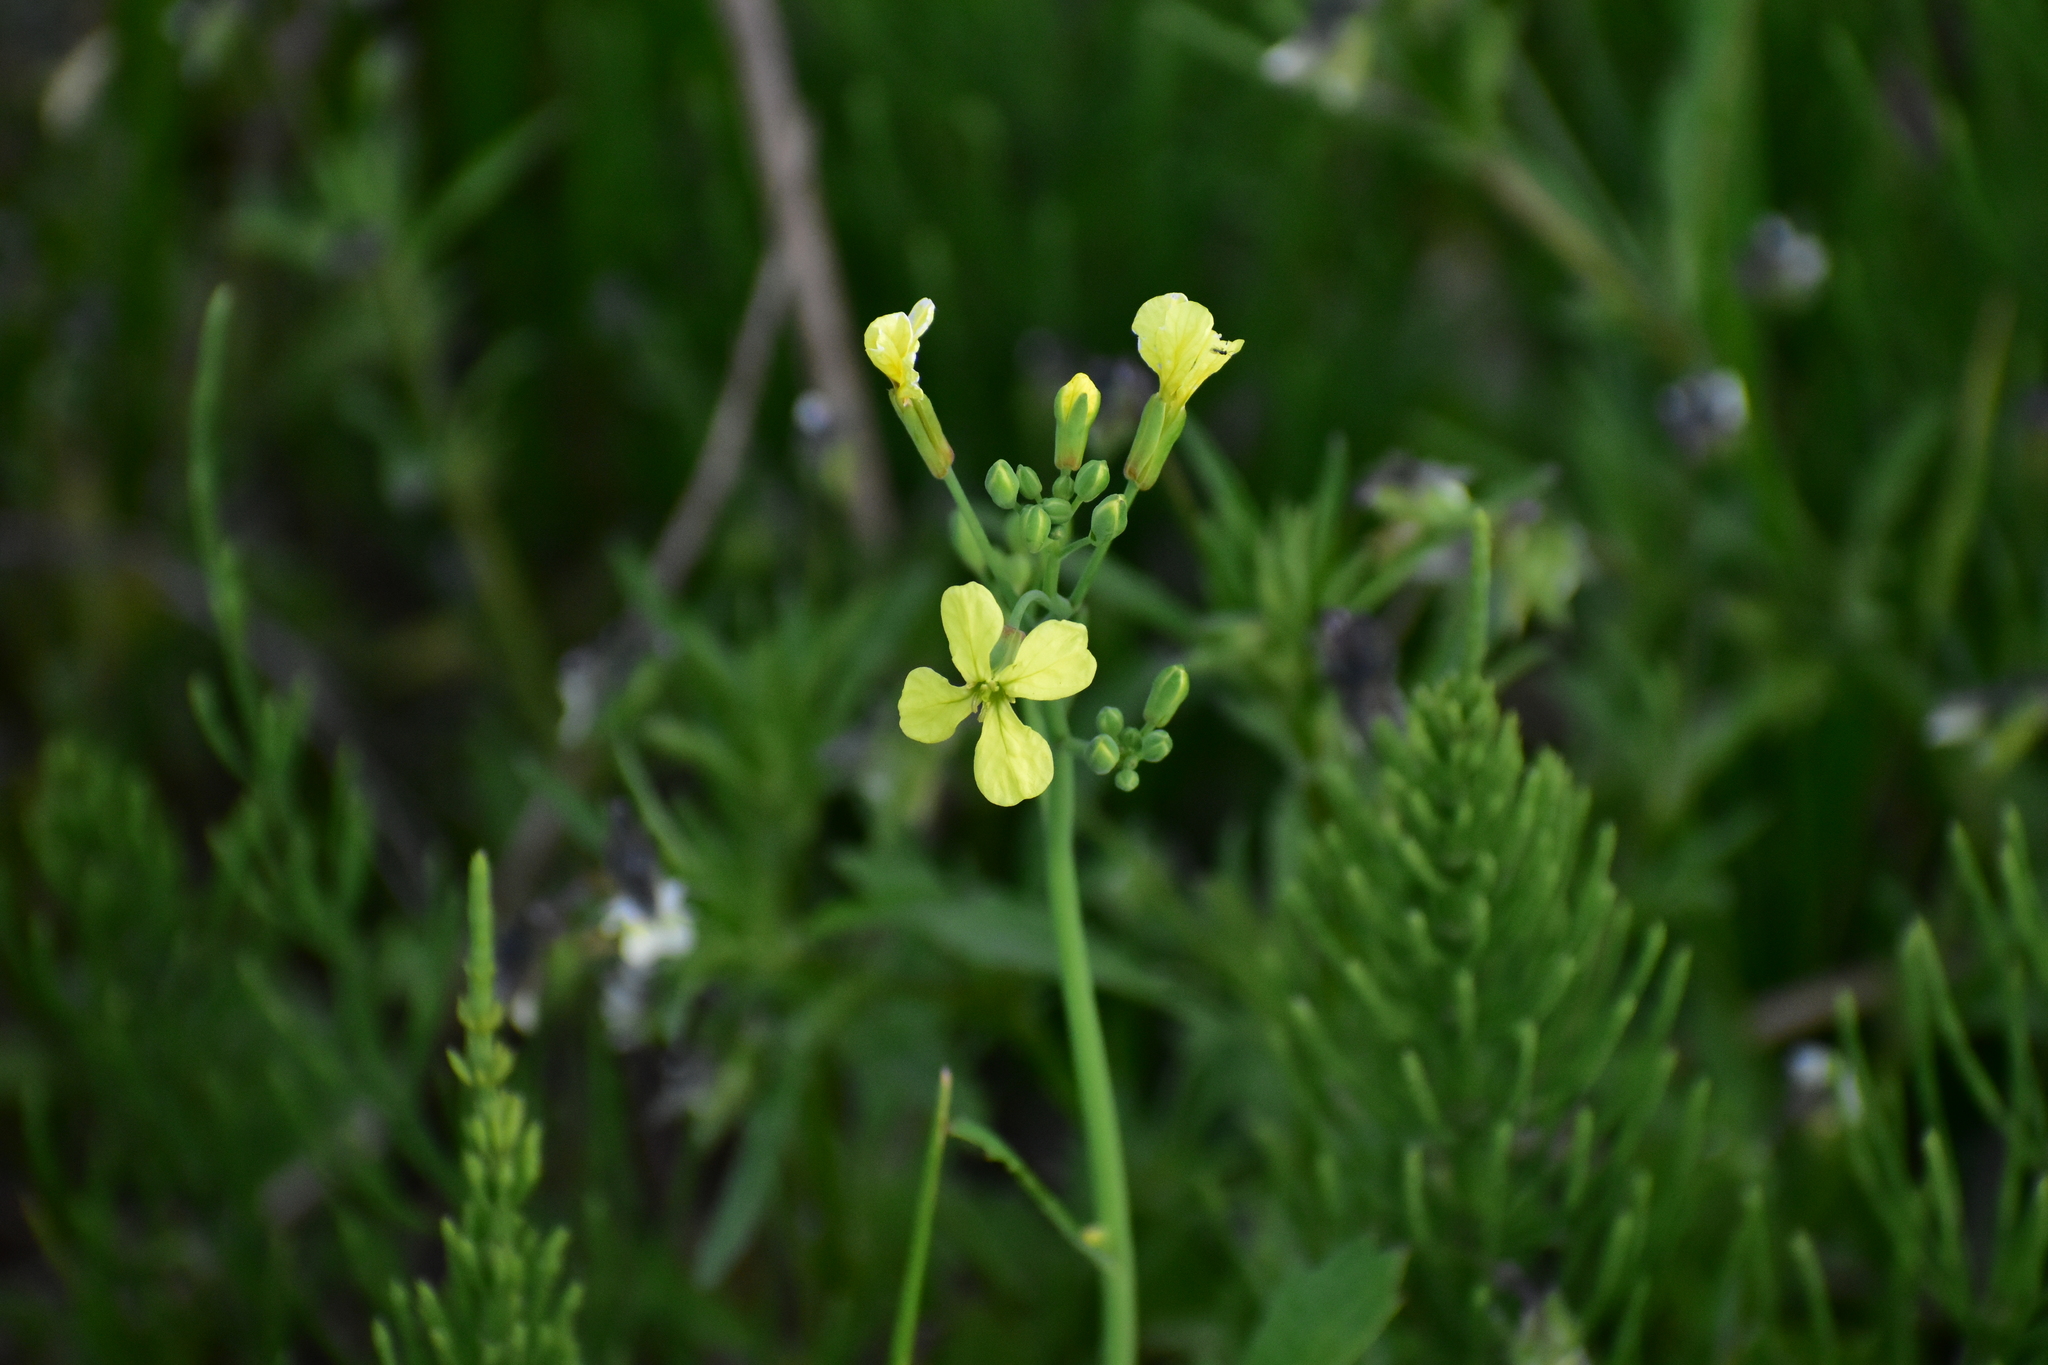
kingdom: Plantae
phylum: Tracheophyta
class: Magnoliopsida
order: Brassicales
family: Brassicaceae
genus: Raphanus
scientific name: Raphanus raphanistrum
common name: Wild radish
